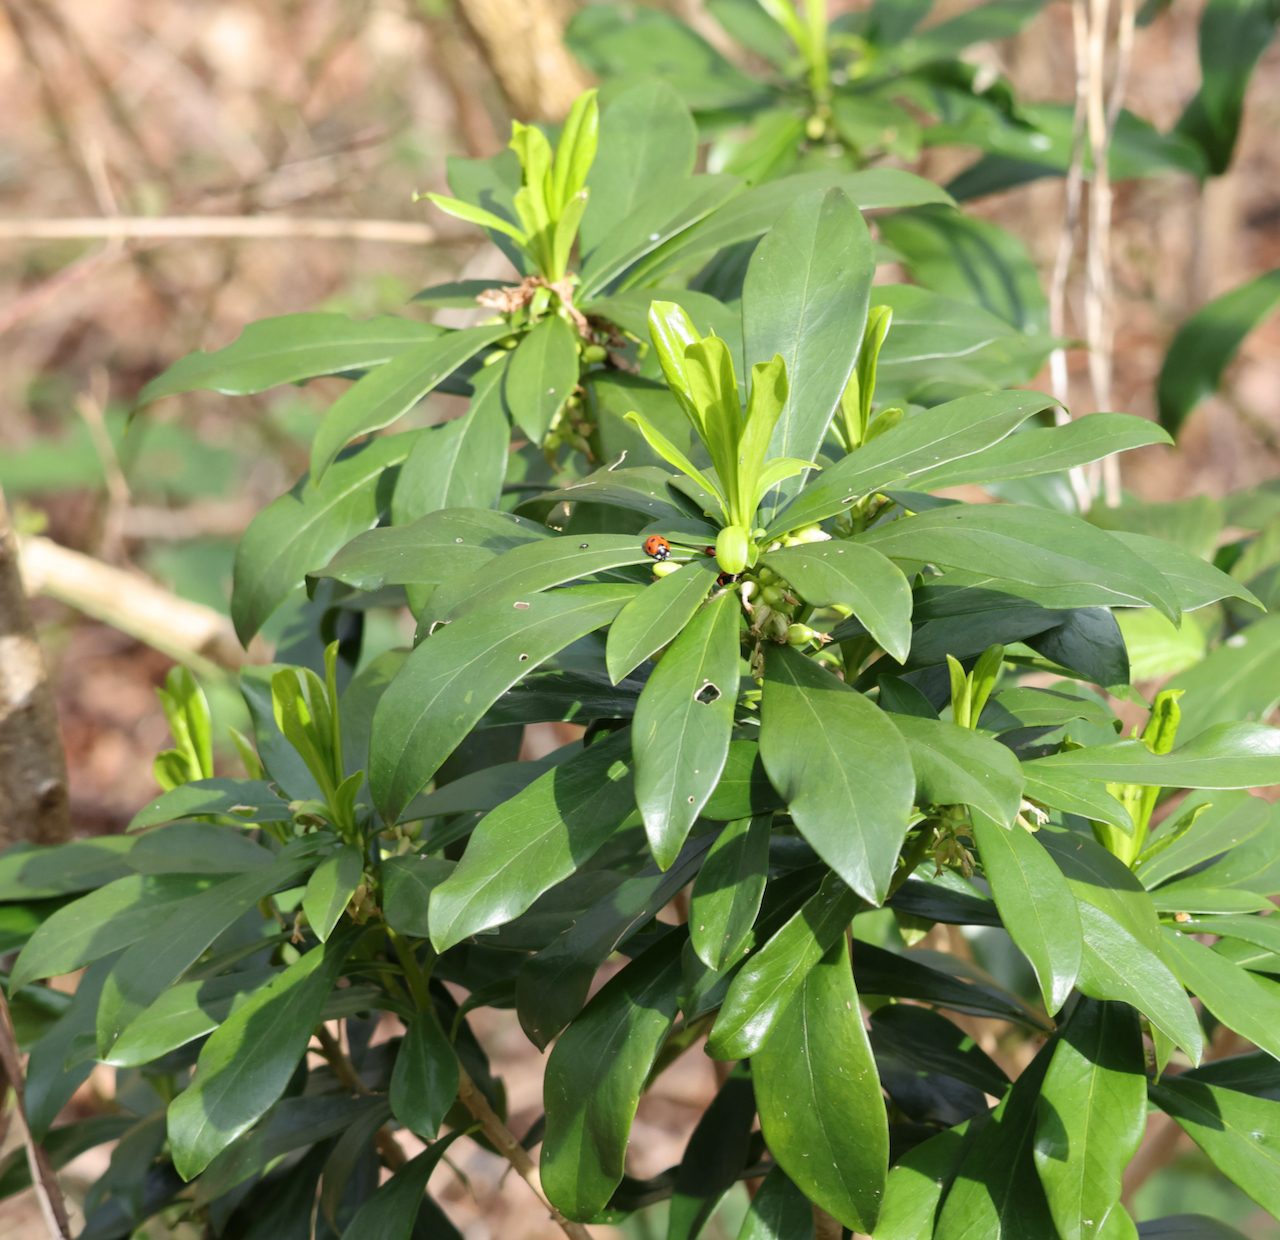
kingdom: Plantae
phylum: Tracheophyta
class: Magnoliopsida
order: Malvales
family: Thymelaeaceae
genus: Daphne
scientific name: Daphne laureola
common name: Spurge-laurel
